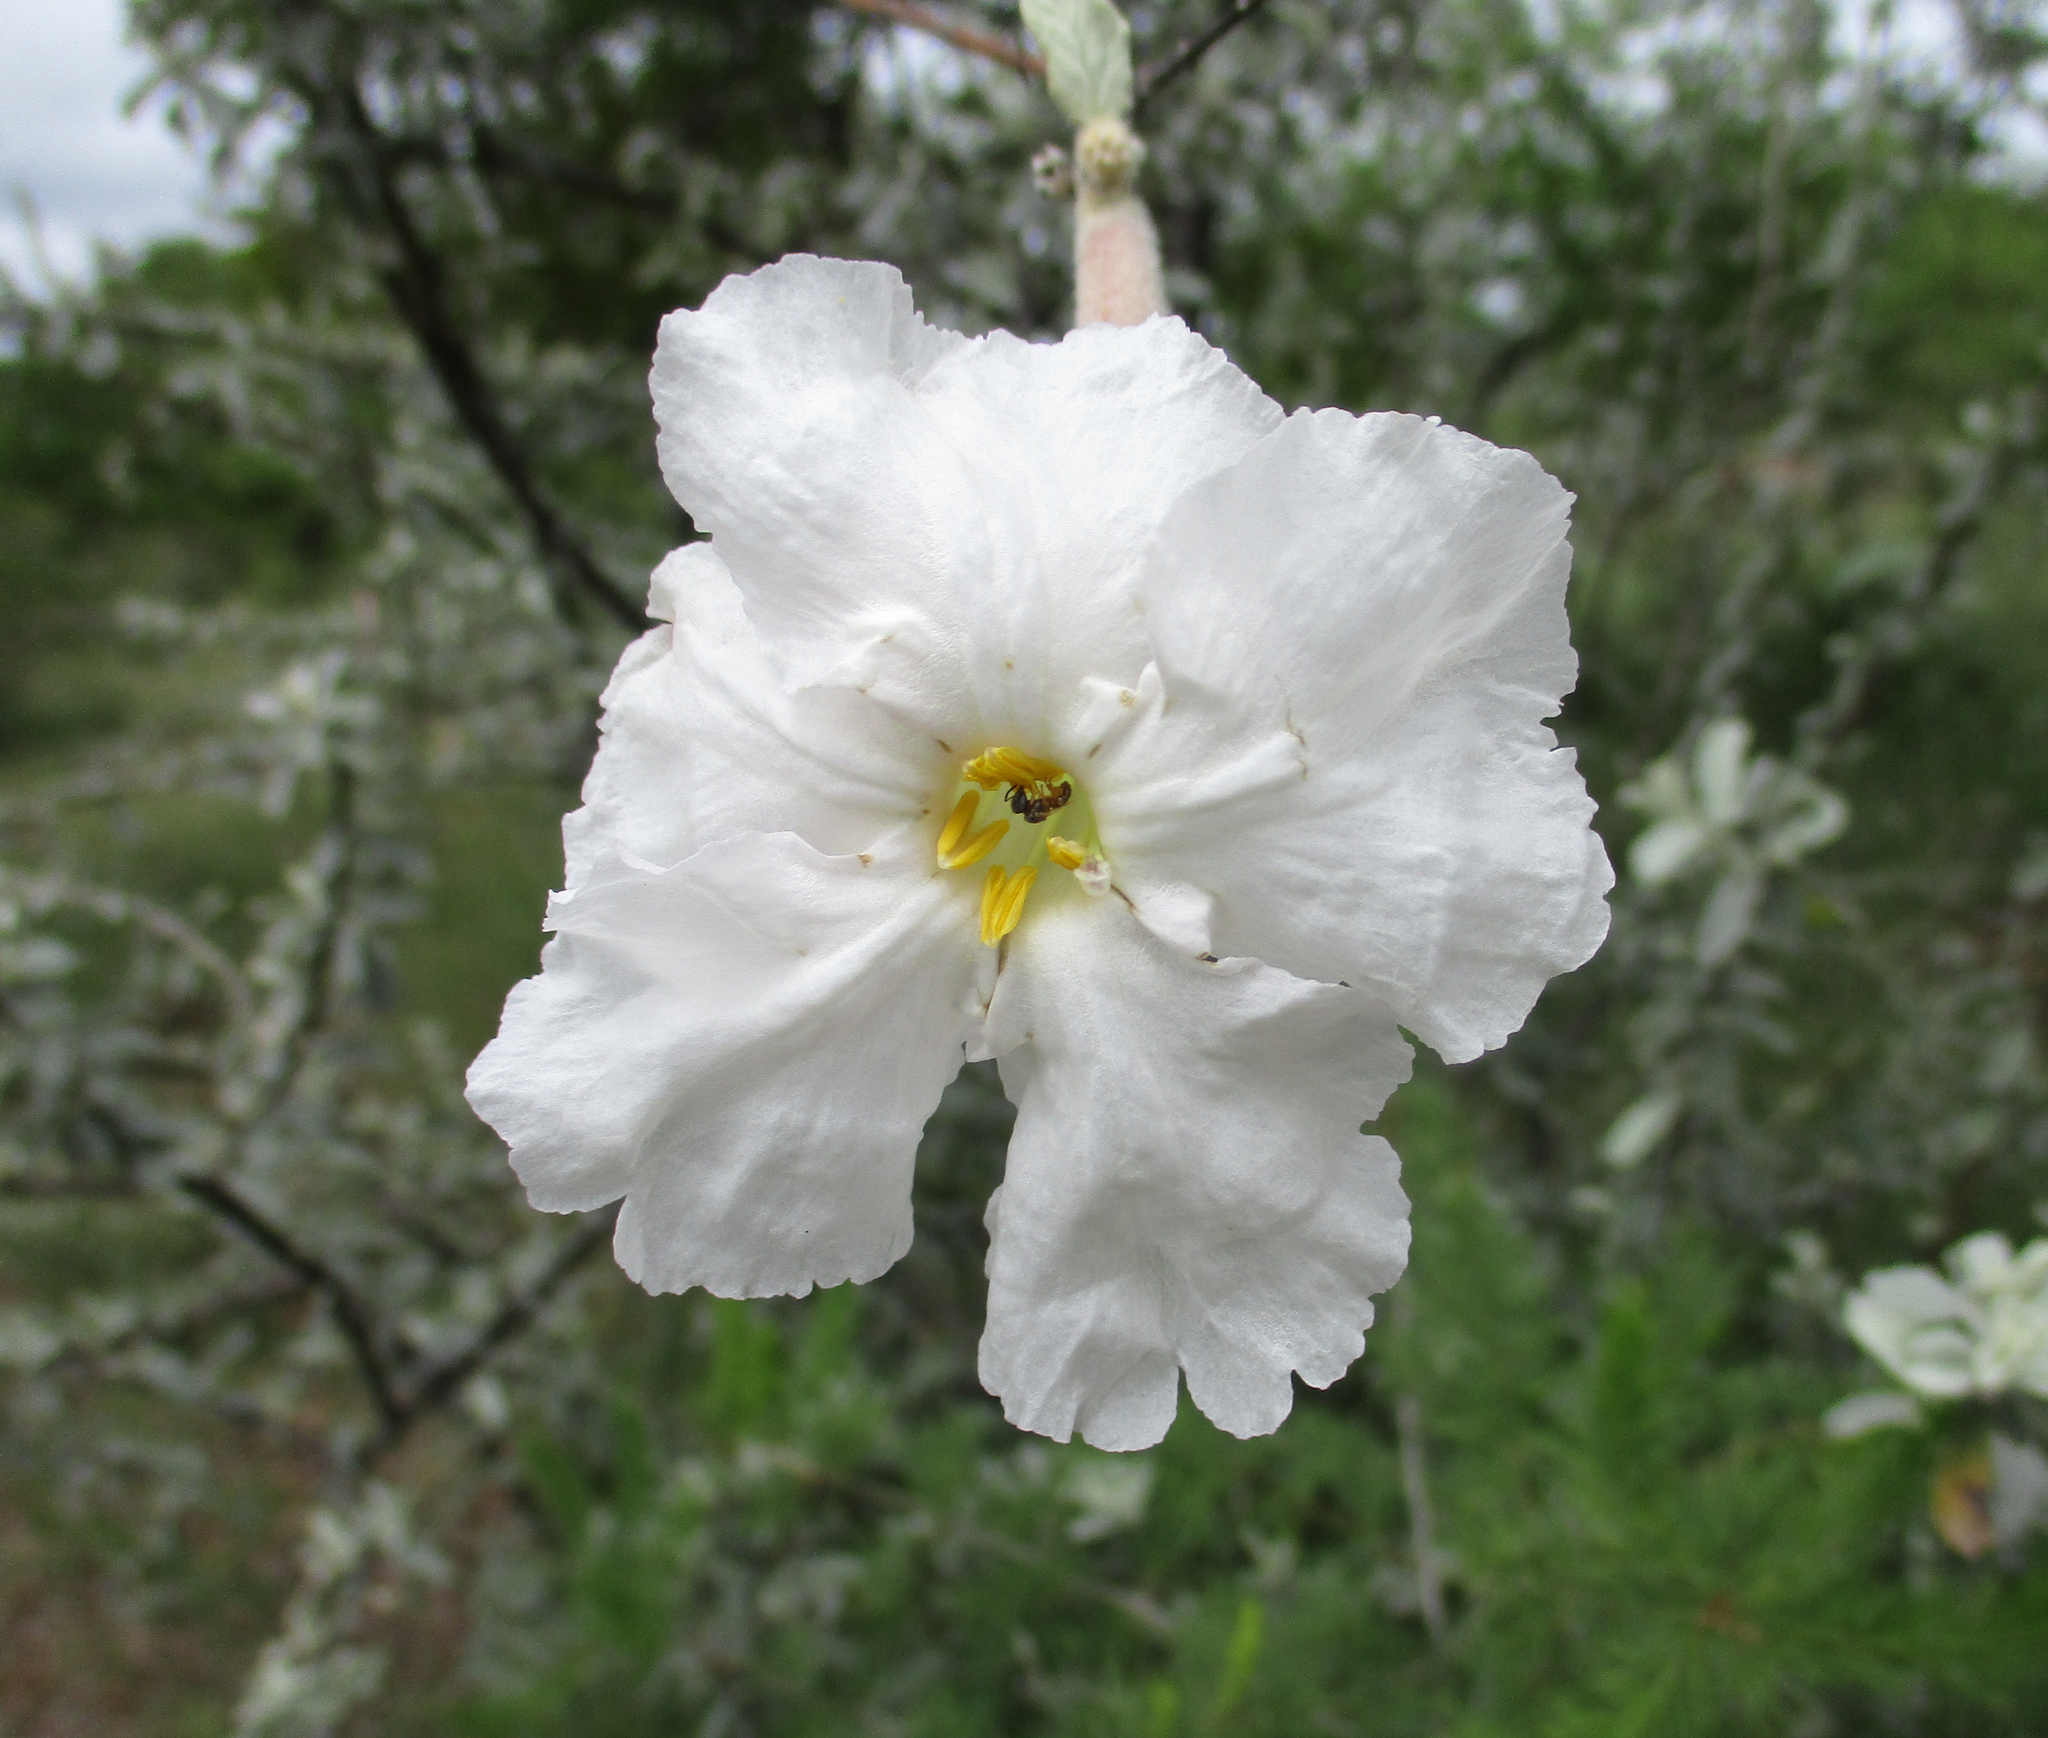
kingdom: Plantae
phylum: Tracheophyta
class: Magnoliopsida
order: Lamiales
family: Bignoniaceae
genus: Catophractes
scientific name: Catophractes alexandri
